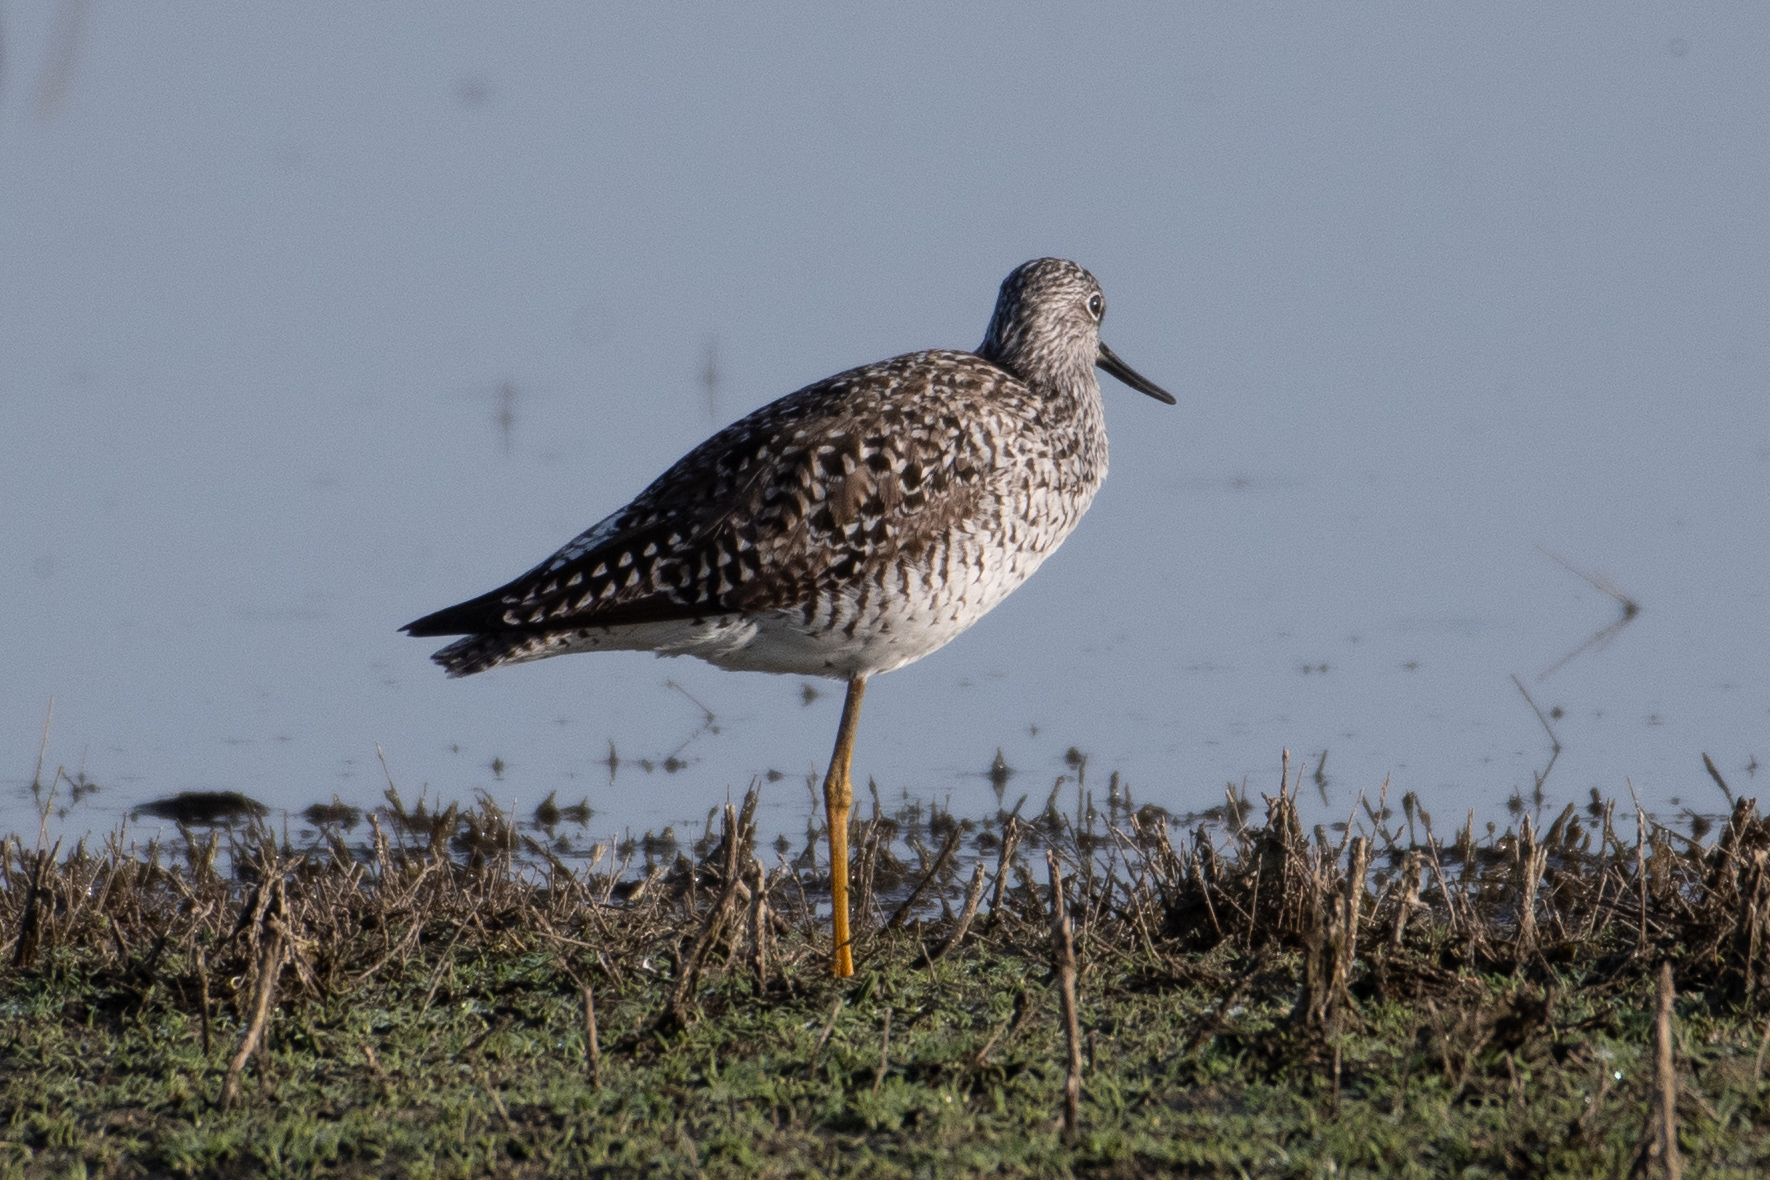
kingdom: Animalia
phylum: Chordata
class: Aves
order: Charadriiformes
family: Scolopacidae
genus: Tringa
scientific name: Tringa melanoleuca
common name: Greater yellowlegs
